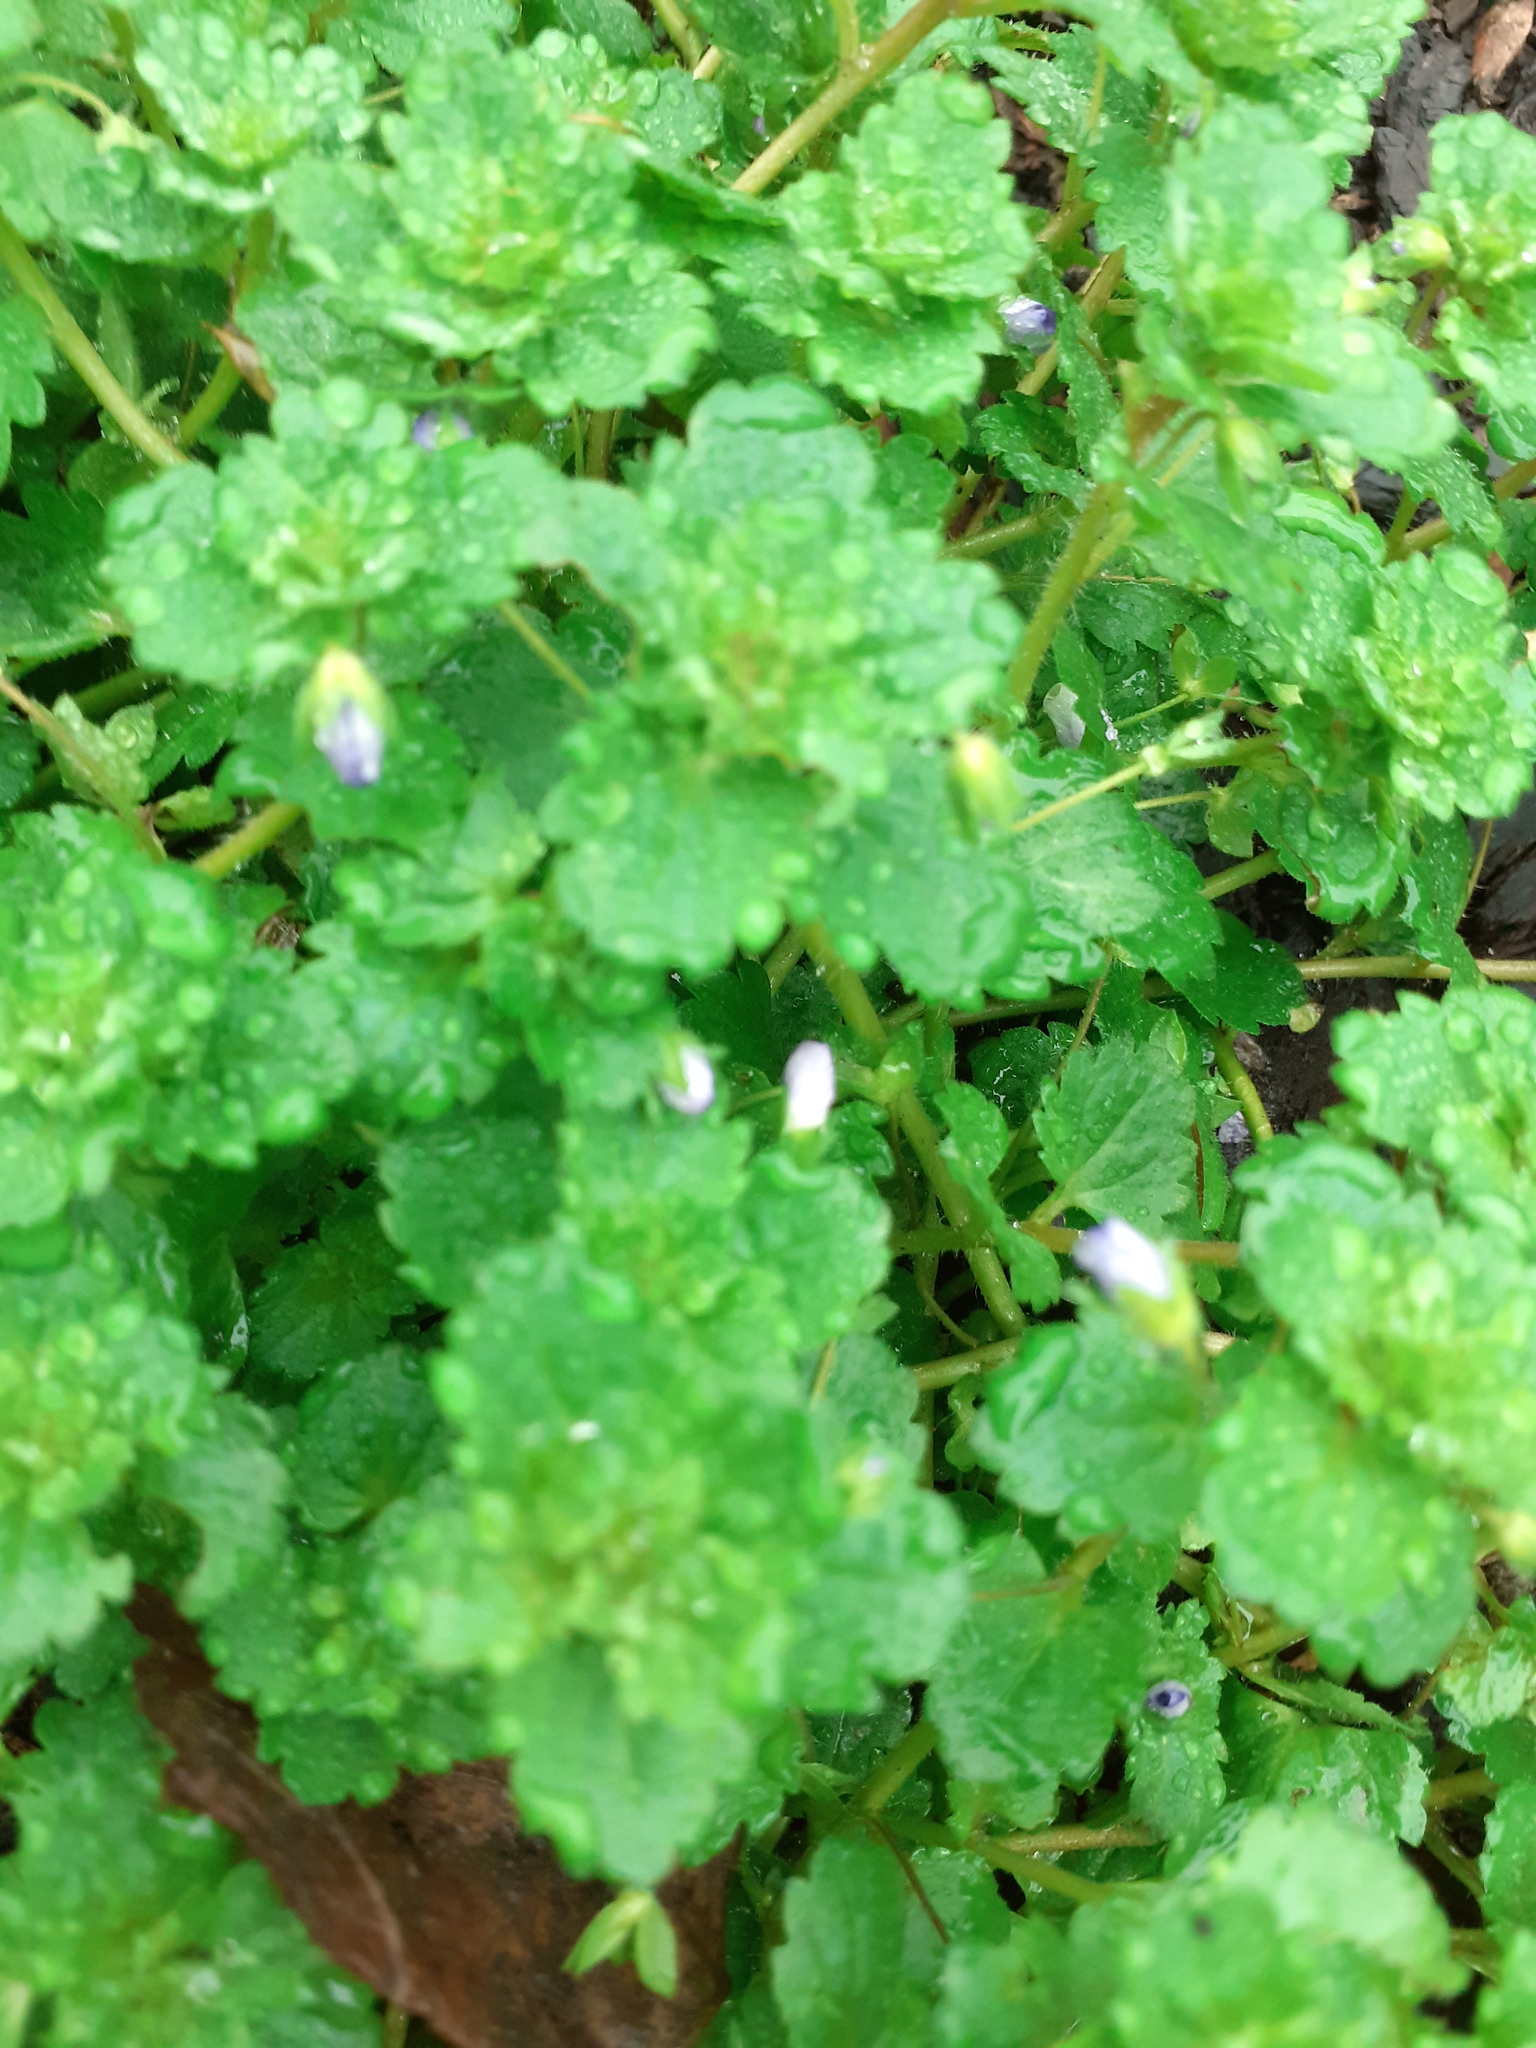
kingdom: Plantae
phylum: Tracheophyta
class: Magnoliopsida
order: Lamiales
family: Plantaginaceae
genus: Veronica
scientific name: Veronica persica
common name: Common field-speedwell
